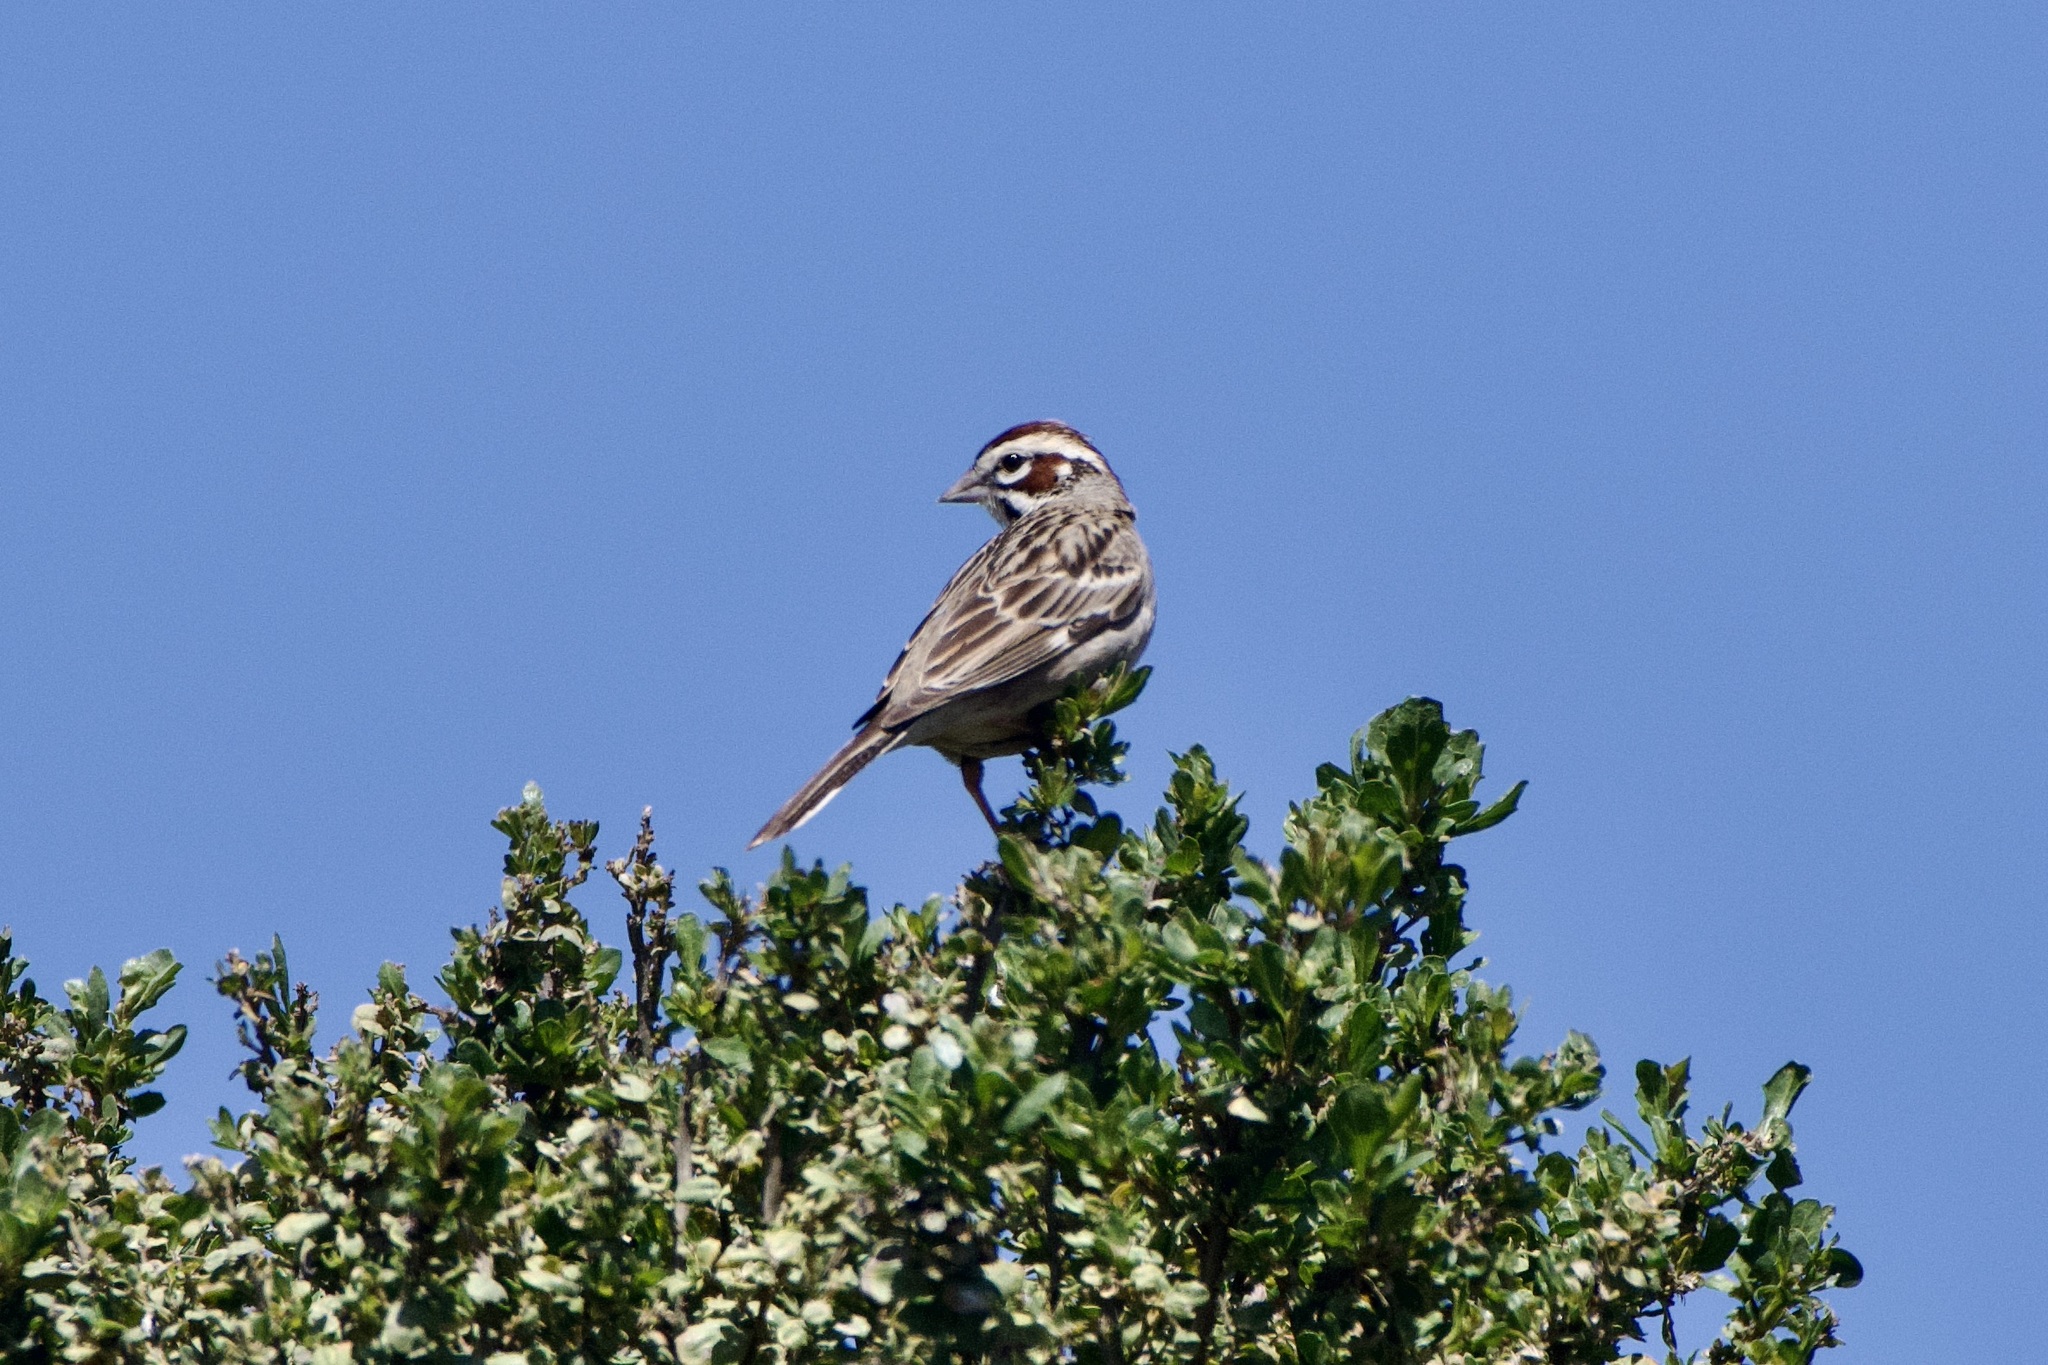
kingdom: Animalia
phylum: Chordata
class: Aves
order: Passeriformes
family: Passerellidae
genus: Chondestes
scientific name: Chondestes grammacus
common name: Lark sparrow
